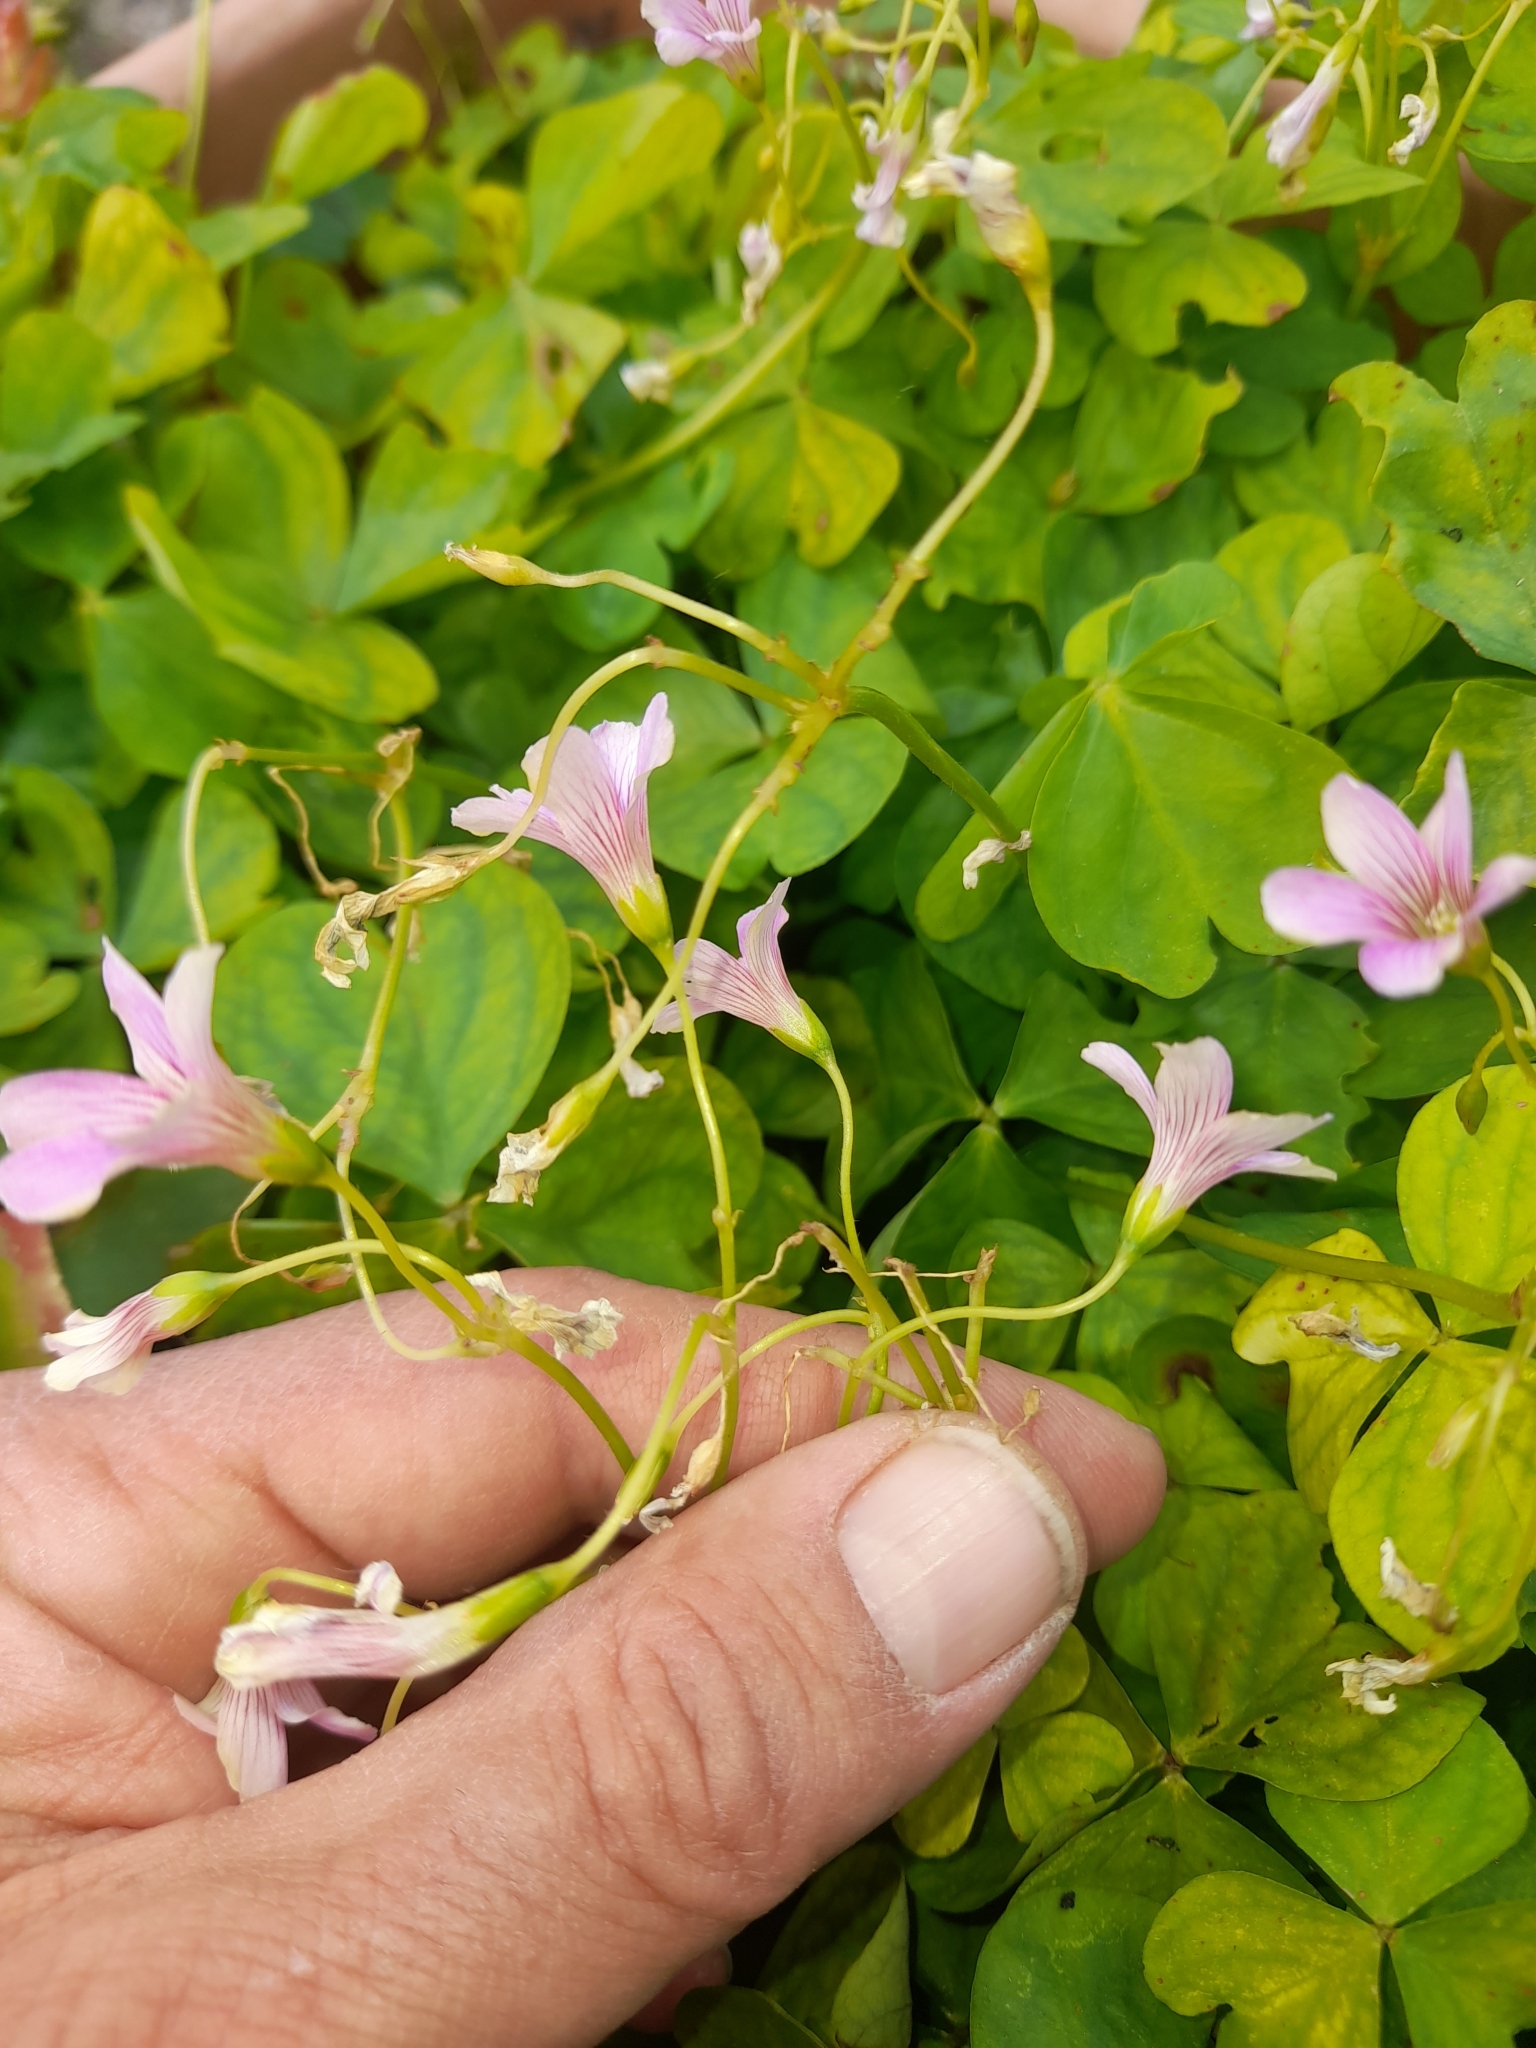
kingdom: Plantae
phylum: Tracheophyta
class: Magnoliopsida
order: Oxalidales
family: Oxalidaceae
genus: Oxalis
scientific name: Oxalis debilis
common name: Large-flowered pink-sorrel
